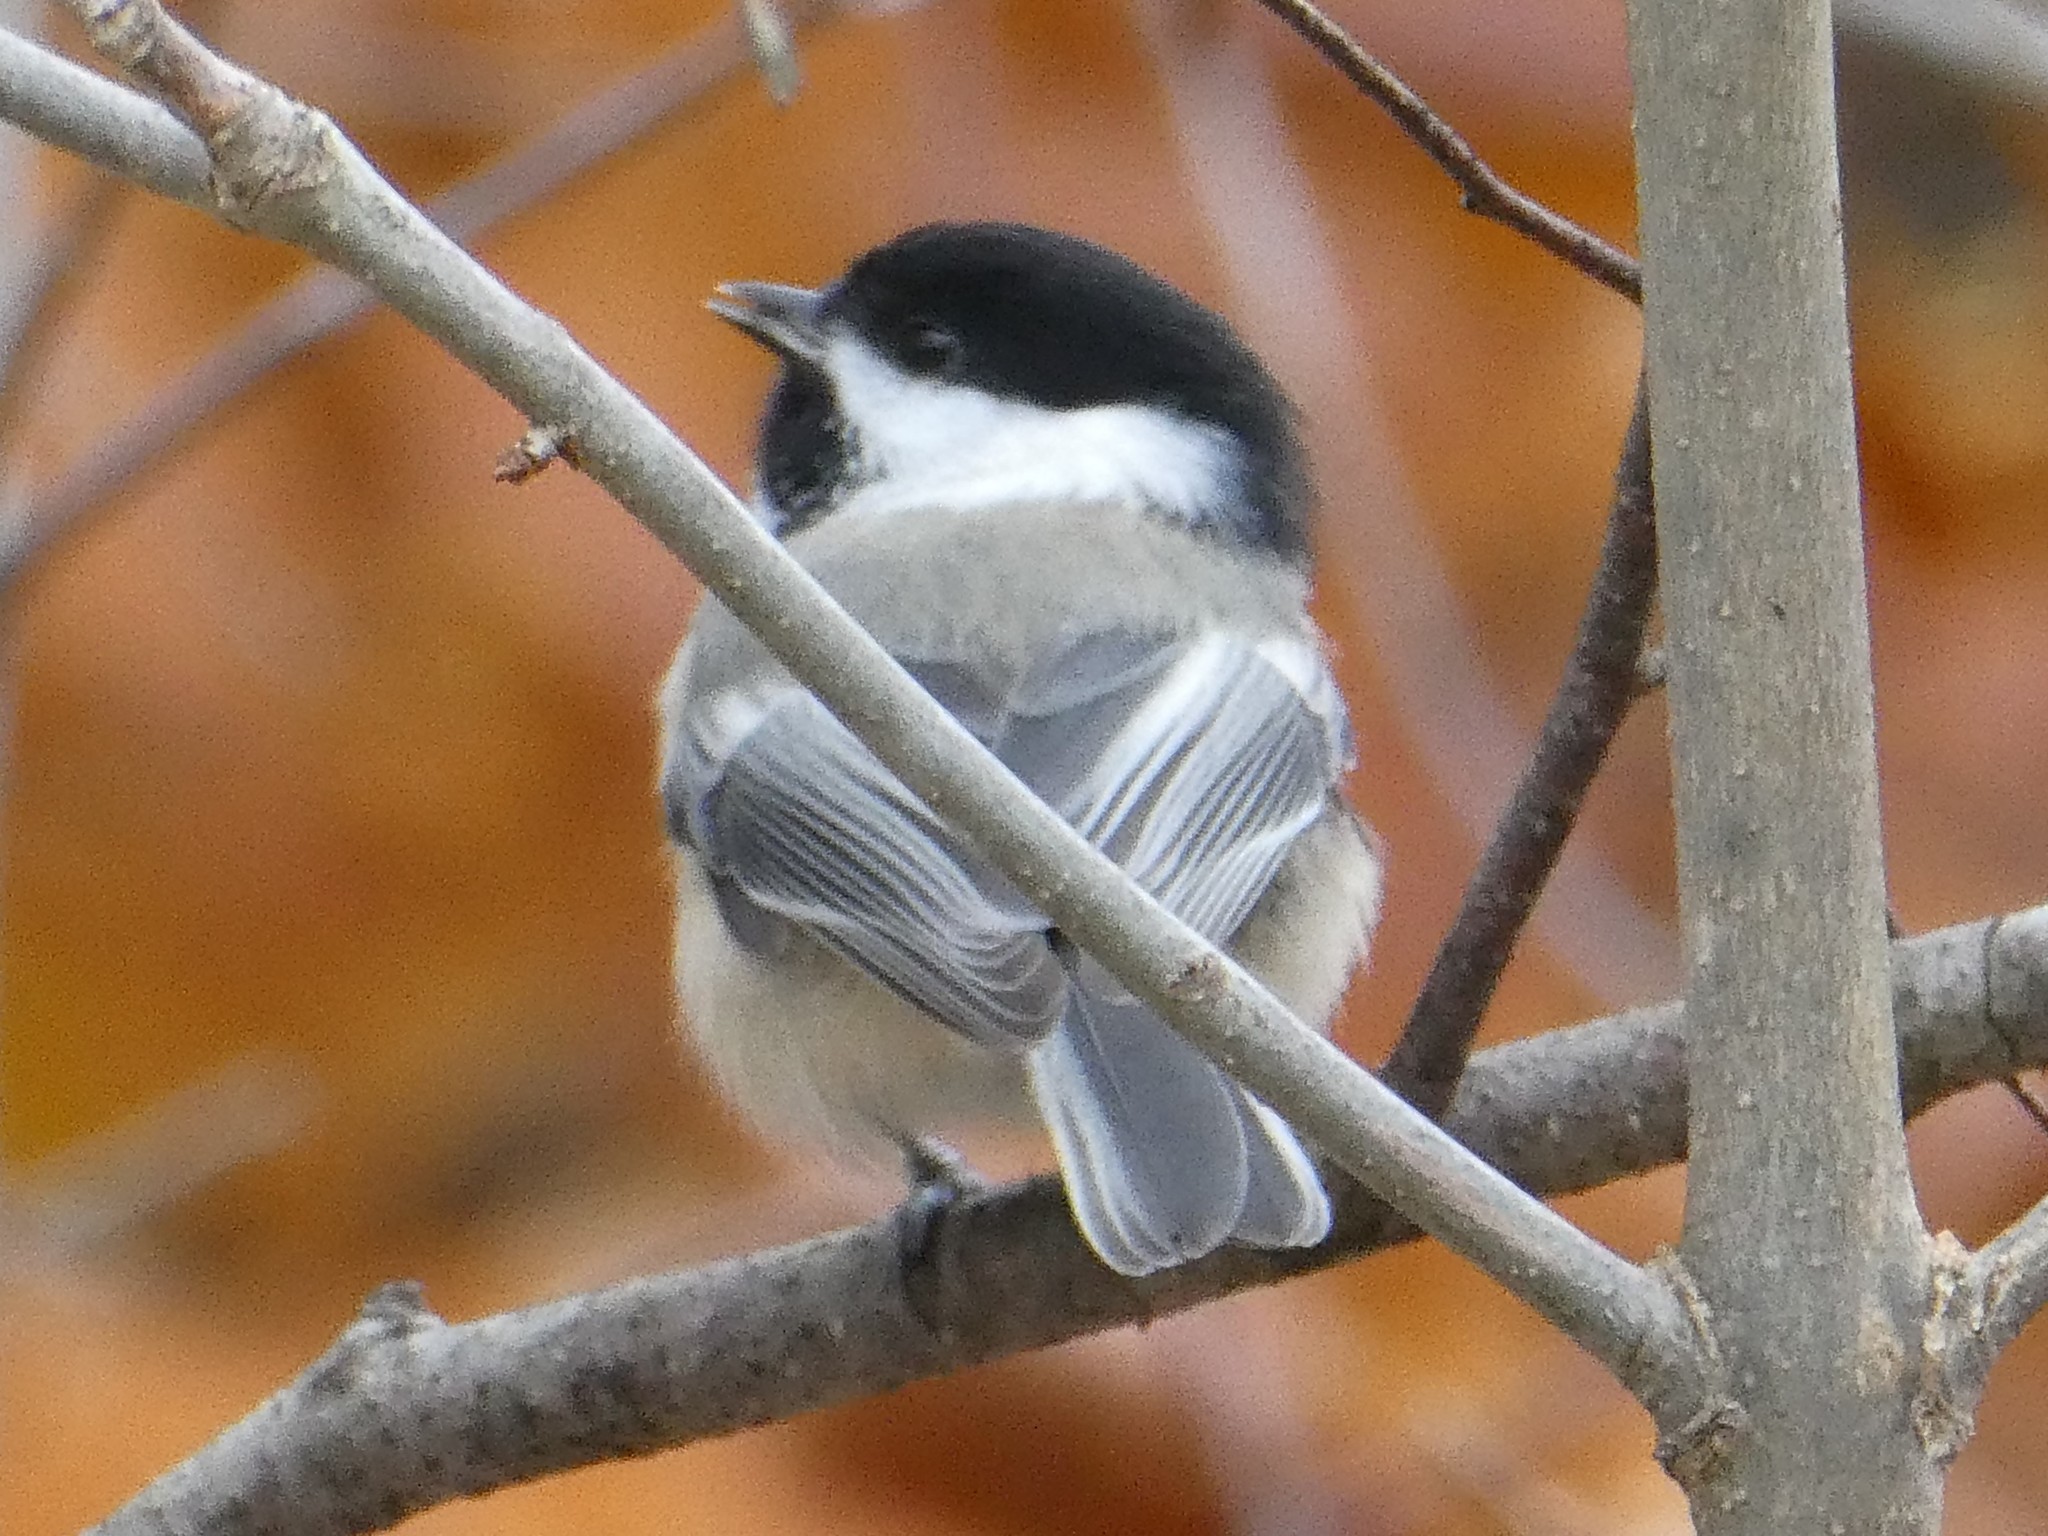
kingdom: Animalia
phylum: Chordata
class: Aves
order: Passeriformes
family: Paridae
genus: Poecile
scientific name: Poecile atricapillus
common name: Black-capped chickadee
